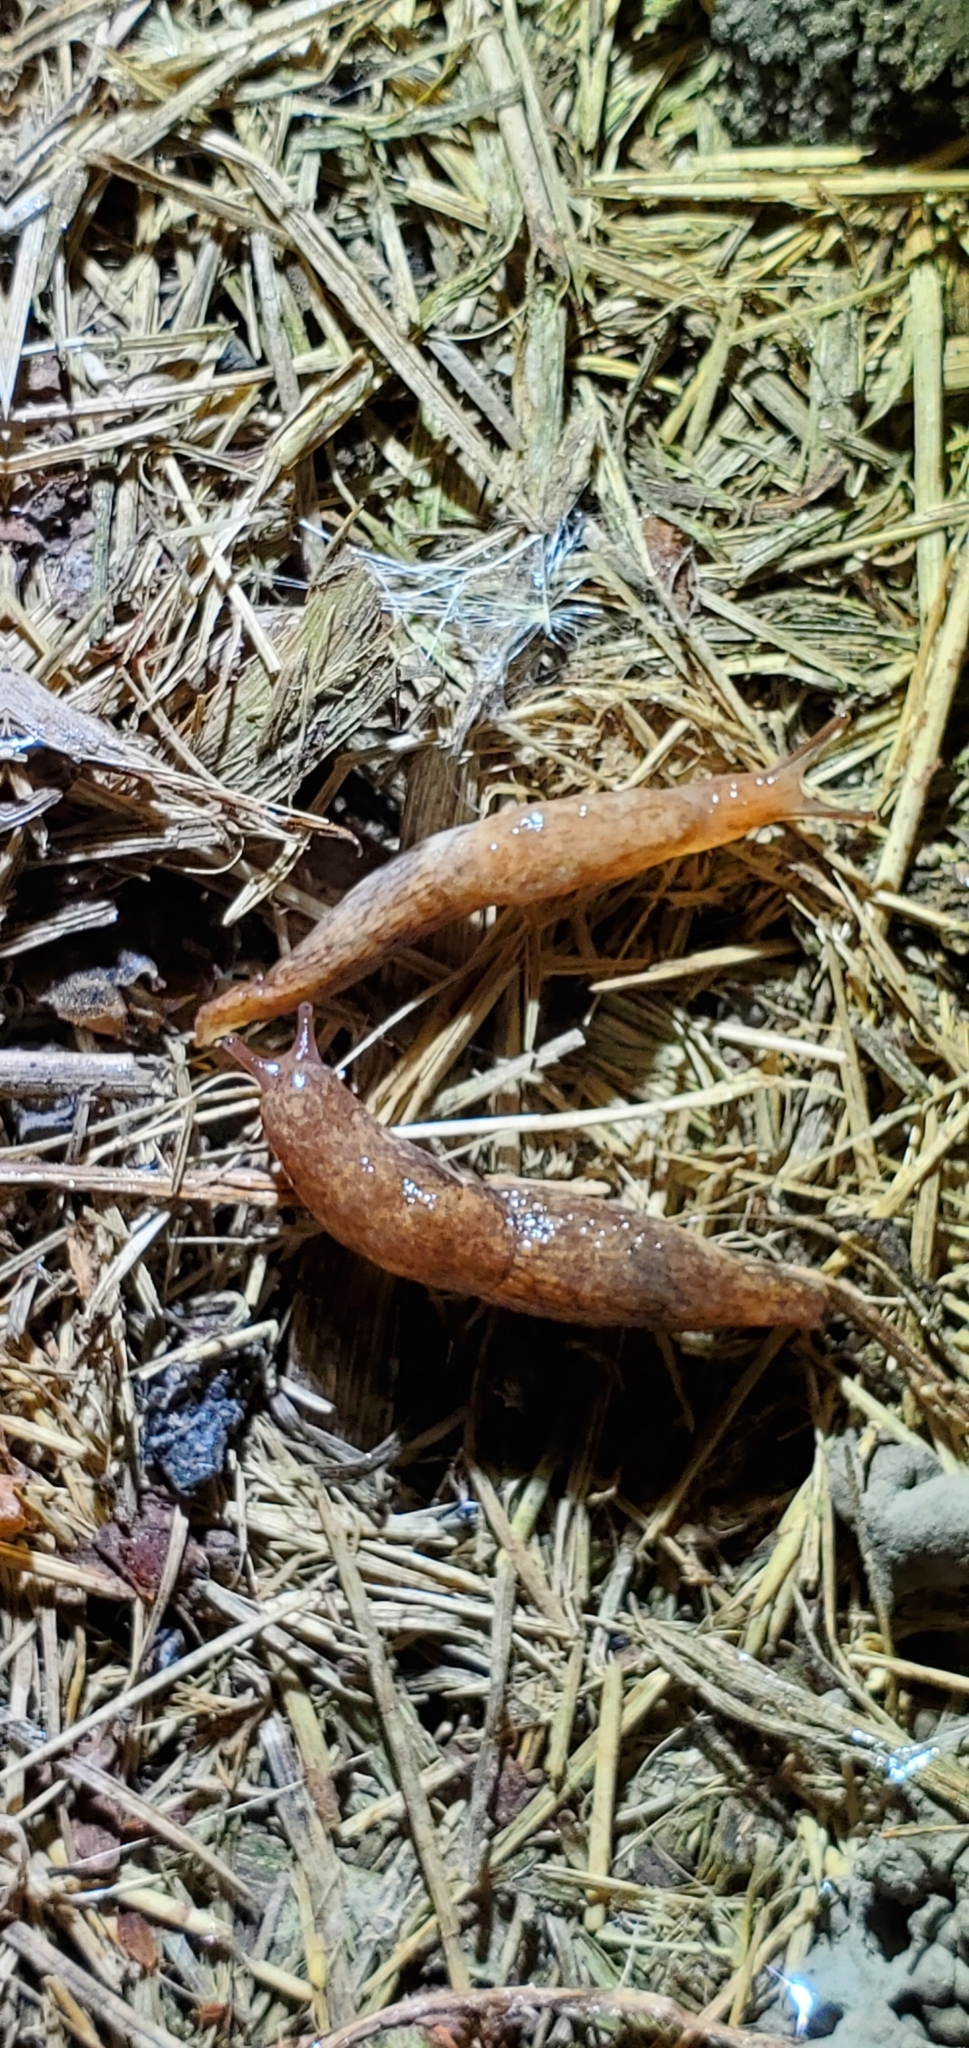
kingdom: Animalia
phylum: Mollusca
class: Gastropoda
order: Stylommatophora
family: Agriolimacidae
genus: Deroceras
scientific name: Deroceras reticulatum
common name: Gray field slug
